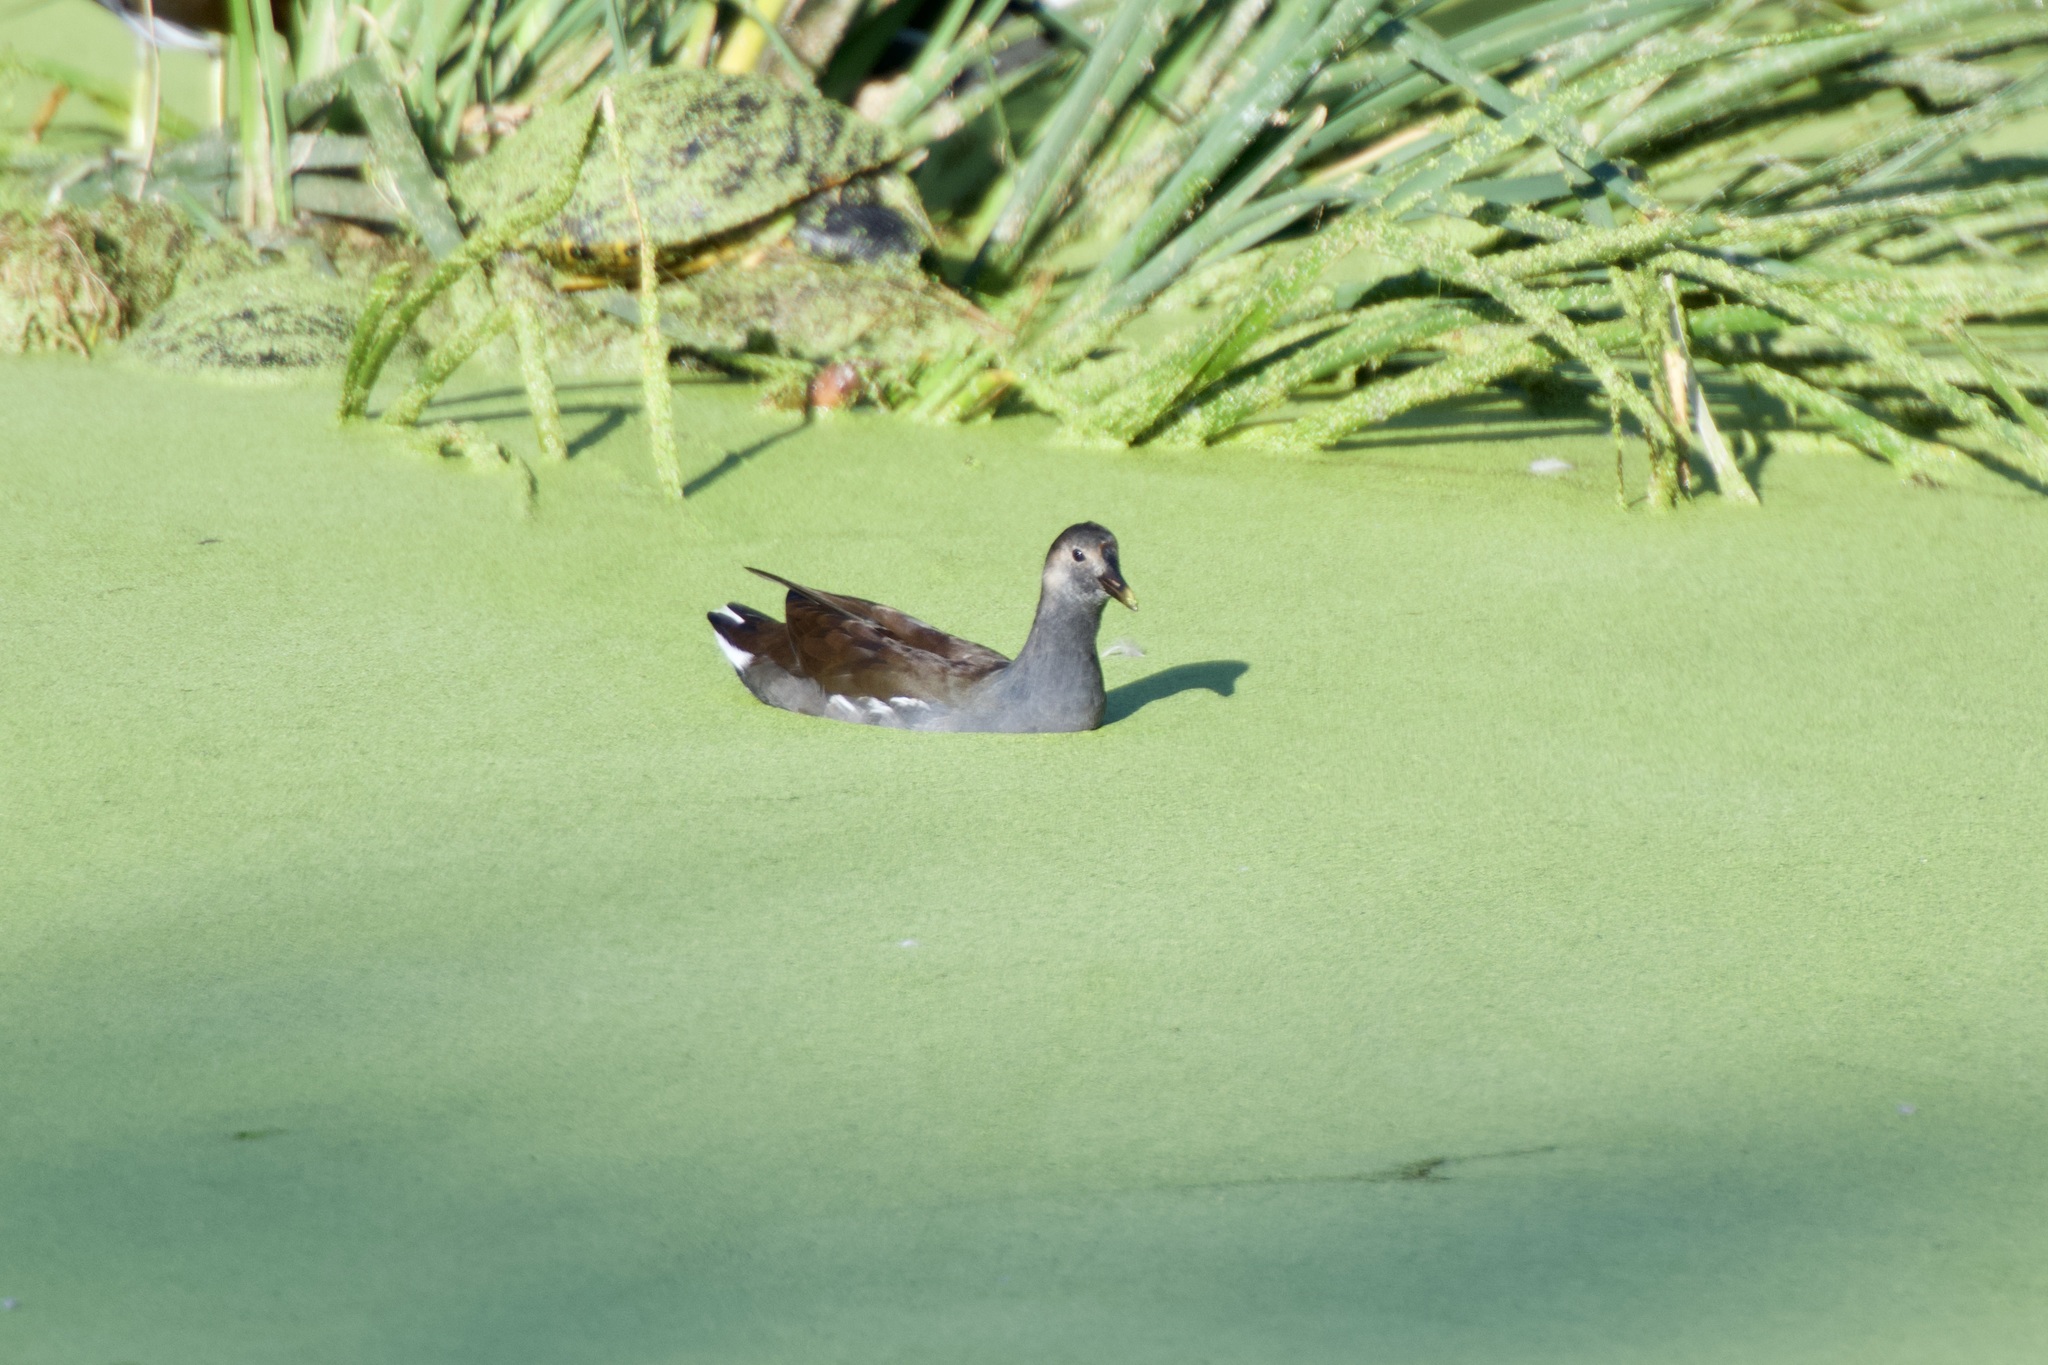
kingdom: Animalia
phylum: Chordata
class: Aves
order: Gruiformes
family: Rallidae
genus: Gallinula
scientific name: Gallinula chloropus
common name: Common moorhen
